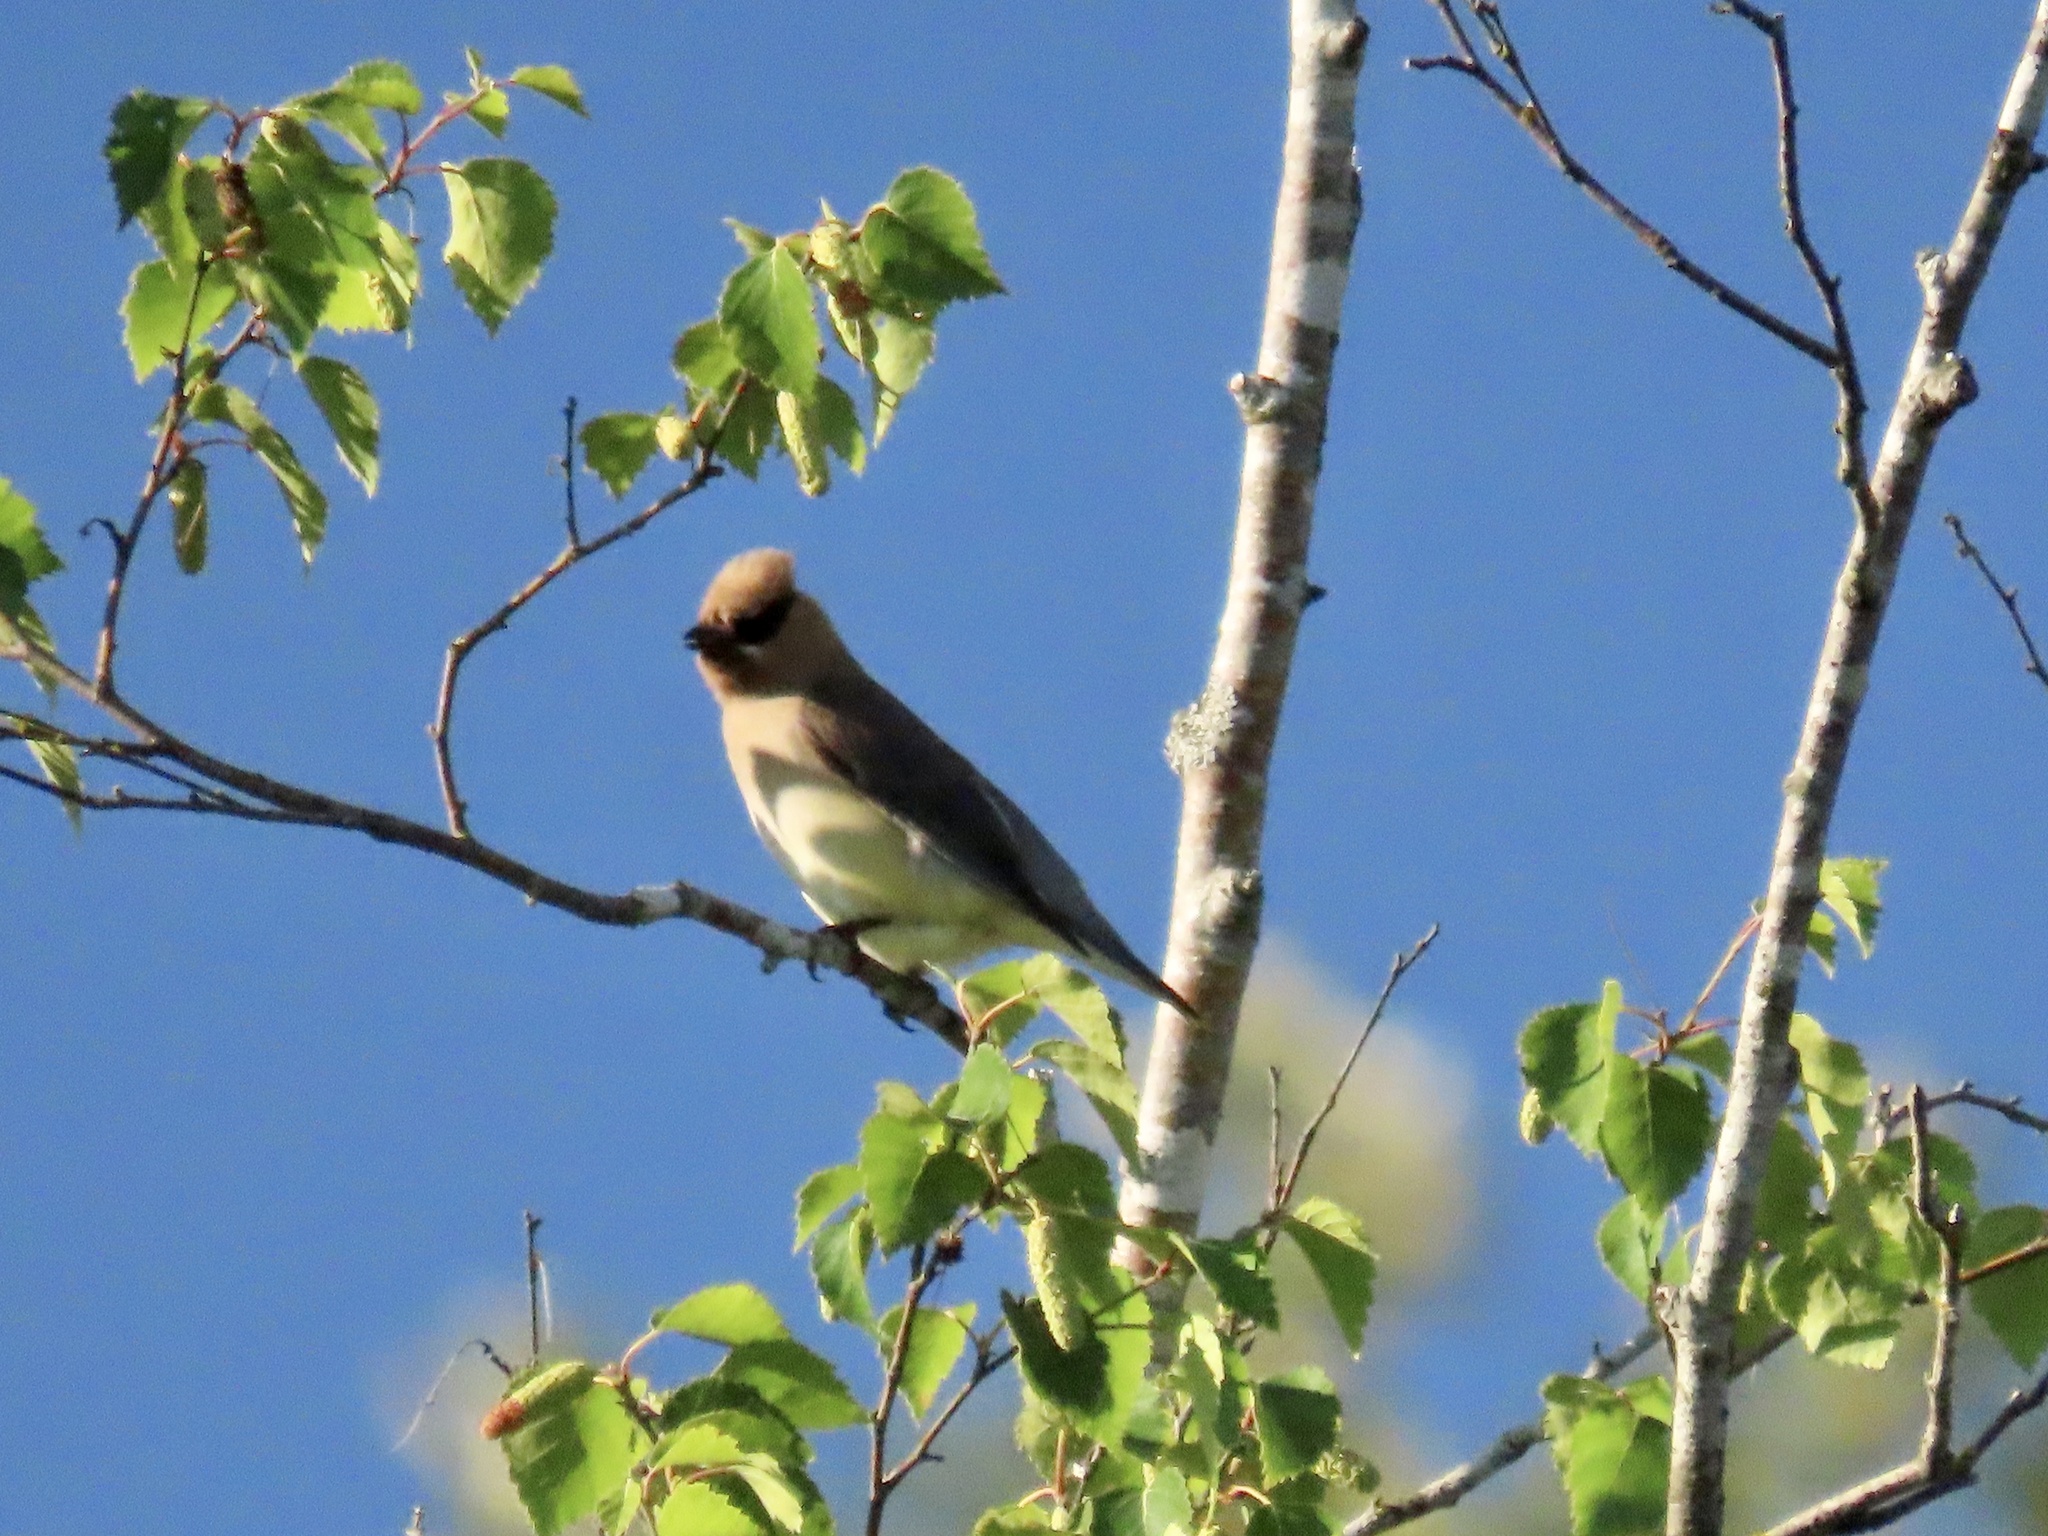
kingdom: Animalia
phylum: Chordata
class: Aves
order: Passeriformes
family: Bombycillidae
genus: Bombycilla
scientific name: Bombycilla cedrorum
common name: Cedar waxwing
